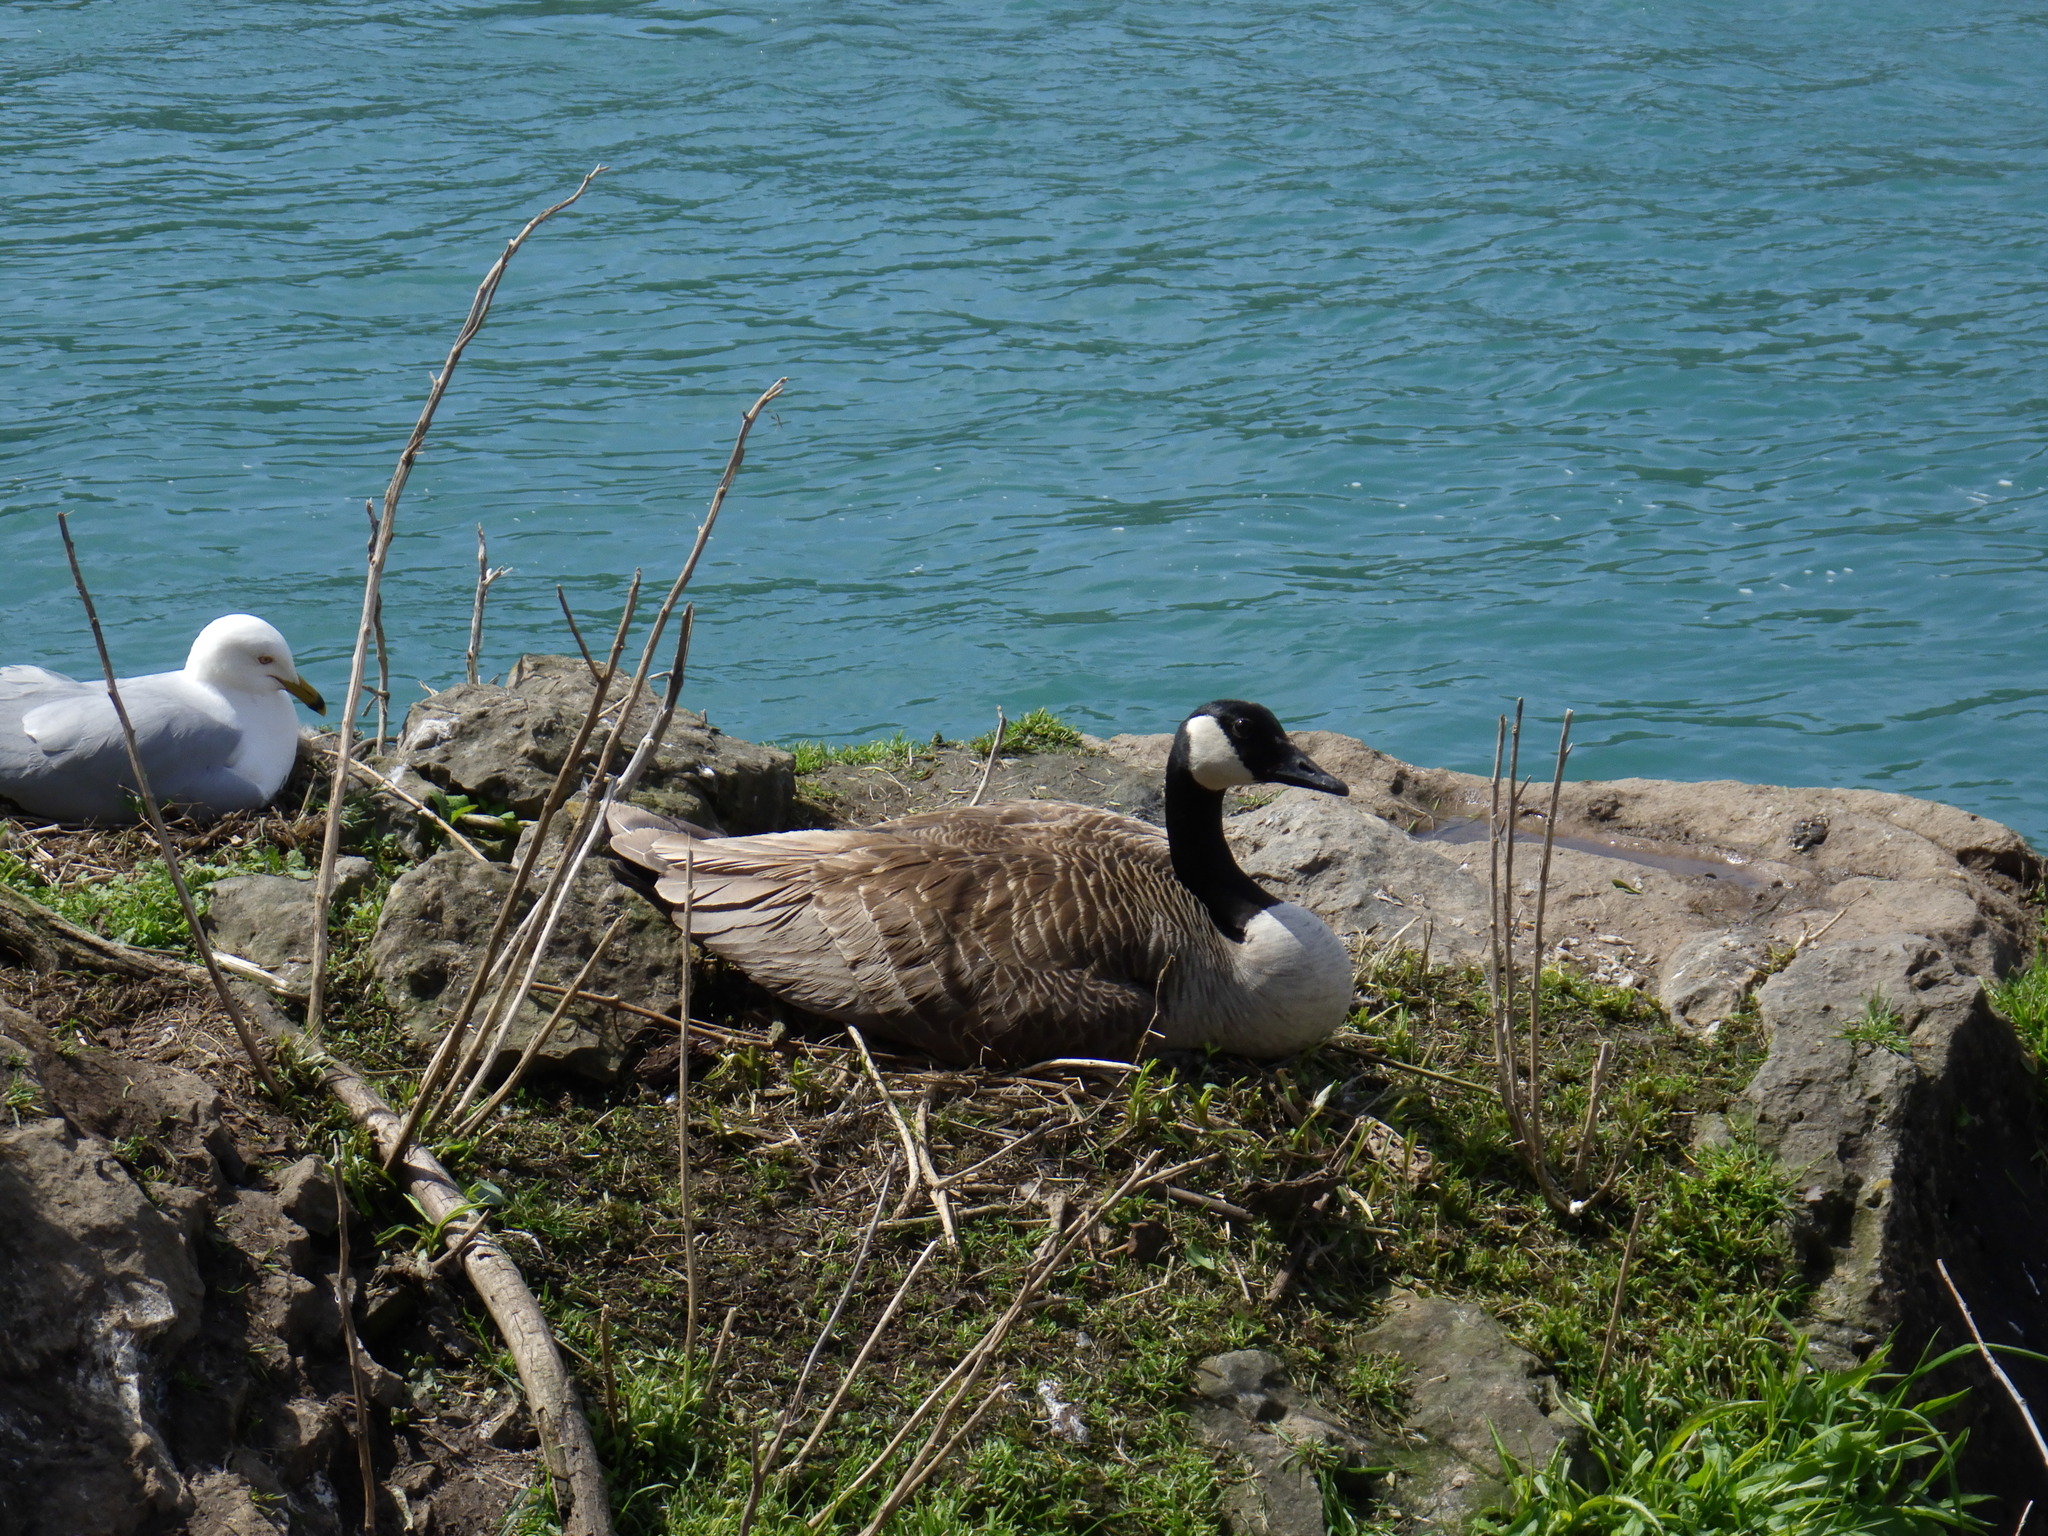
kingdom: Animalia
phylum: Chordata
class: Aves
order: Anseriformes
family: Anatidae
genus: Branta
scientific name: Branta canadensis
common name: Canada goose
